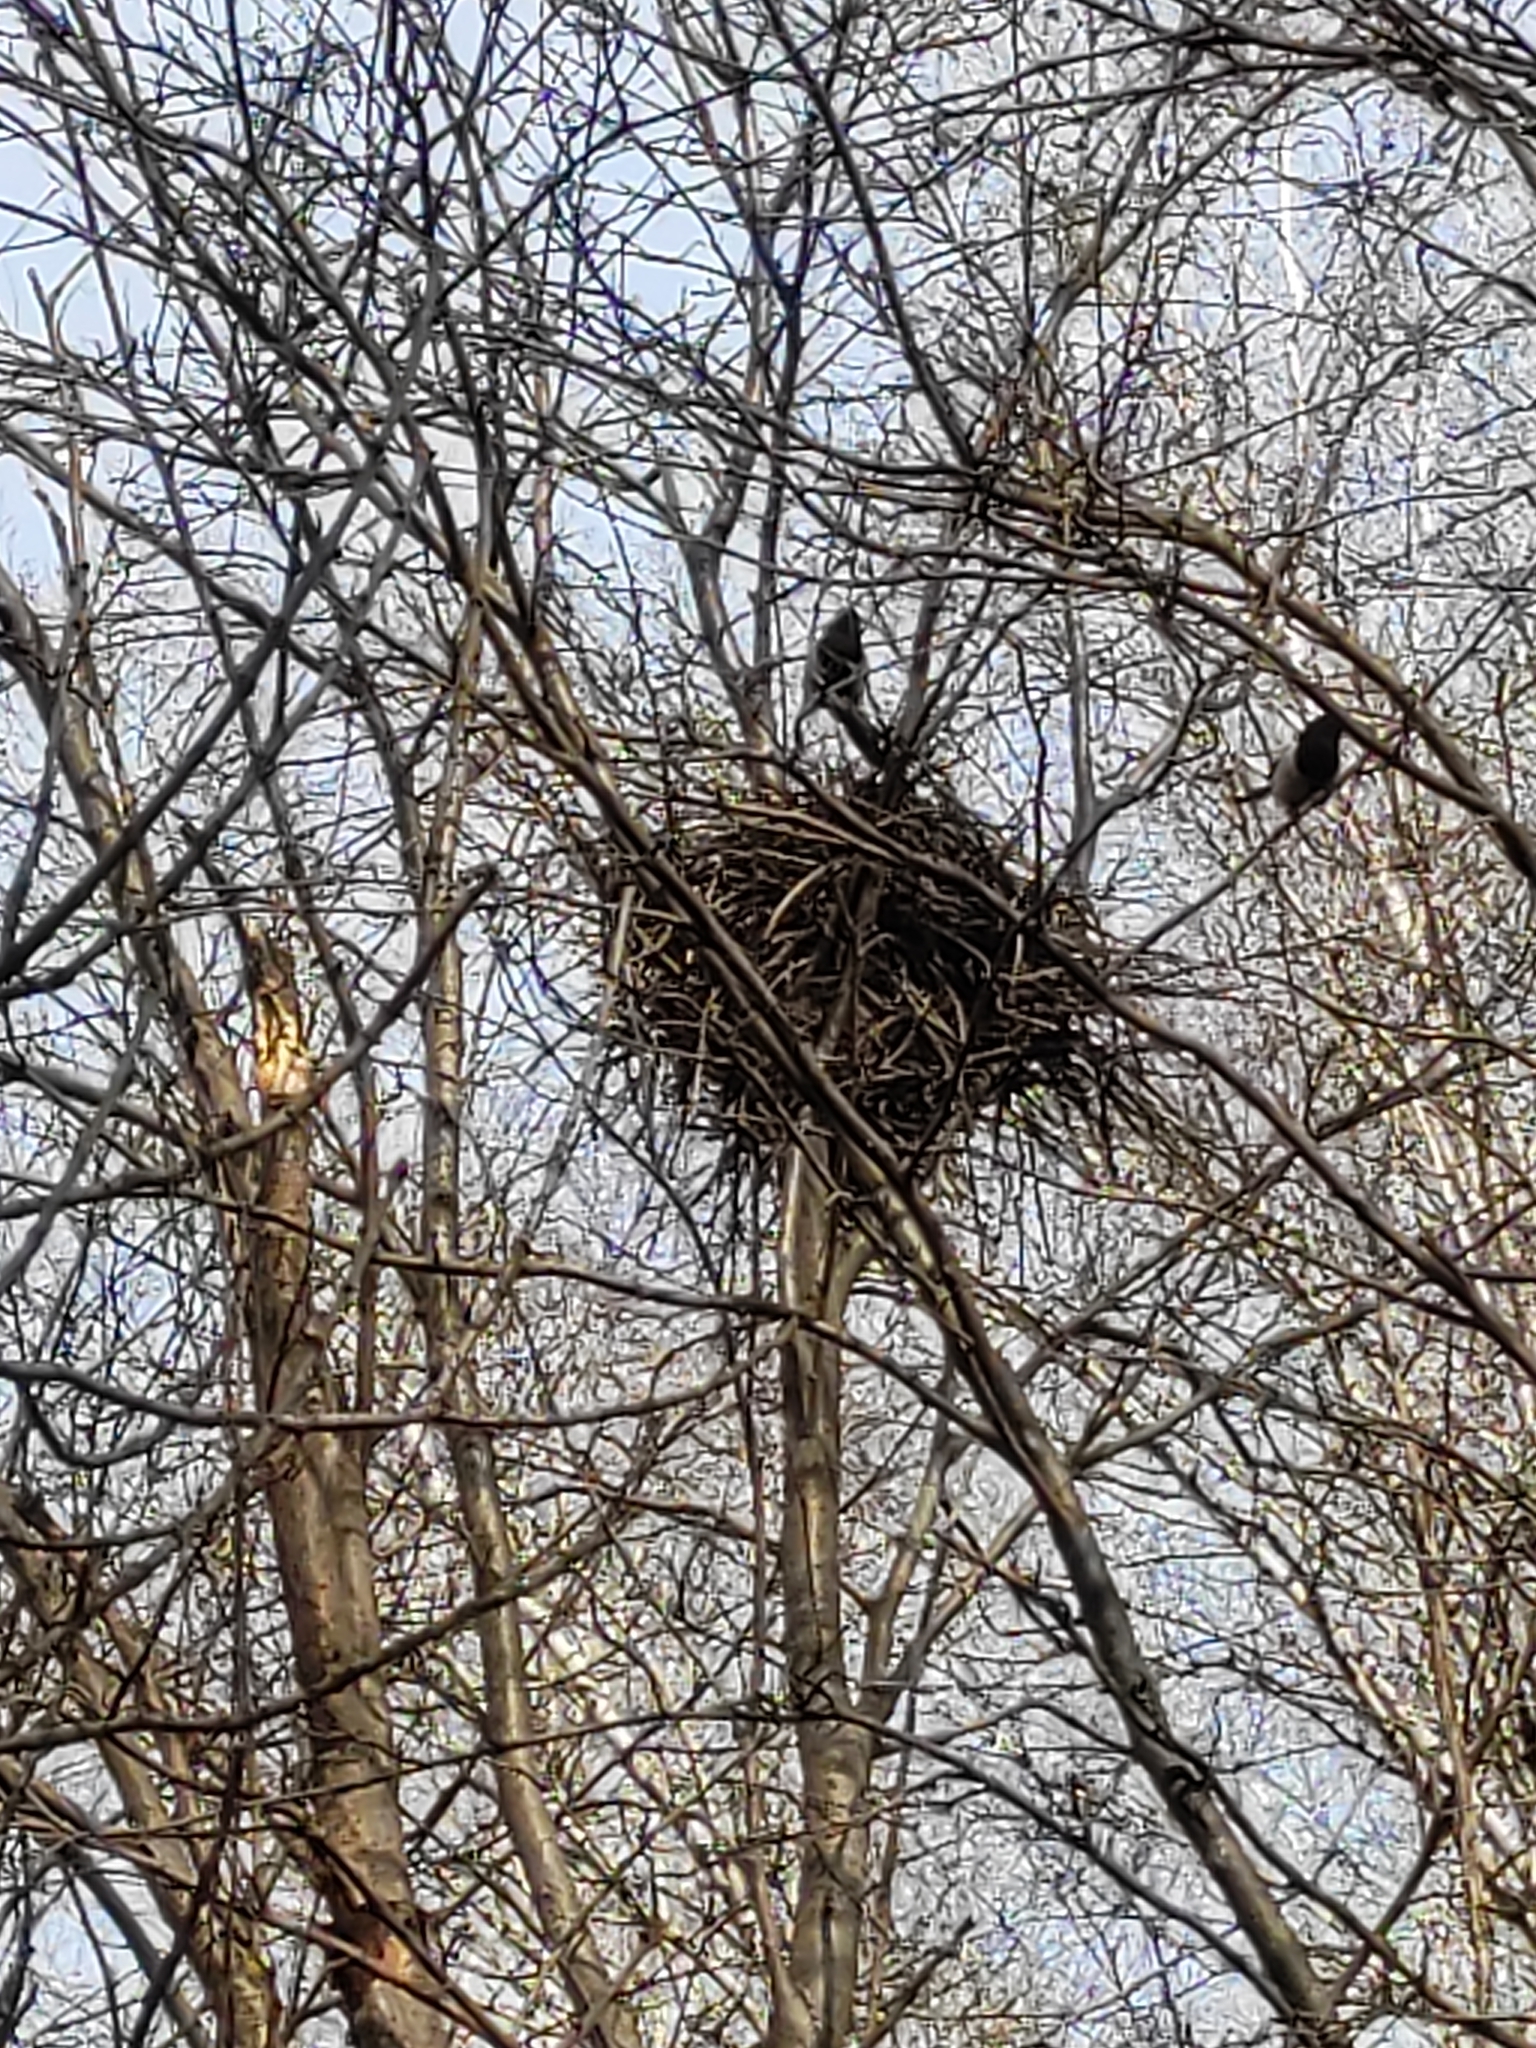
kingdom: Animalia
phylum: Chordata
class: Aves
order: Passeriformes
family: Corvidae
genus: Pica
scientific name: Pica pica
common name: Eurasian magpie
